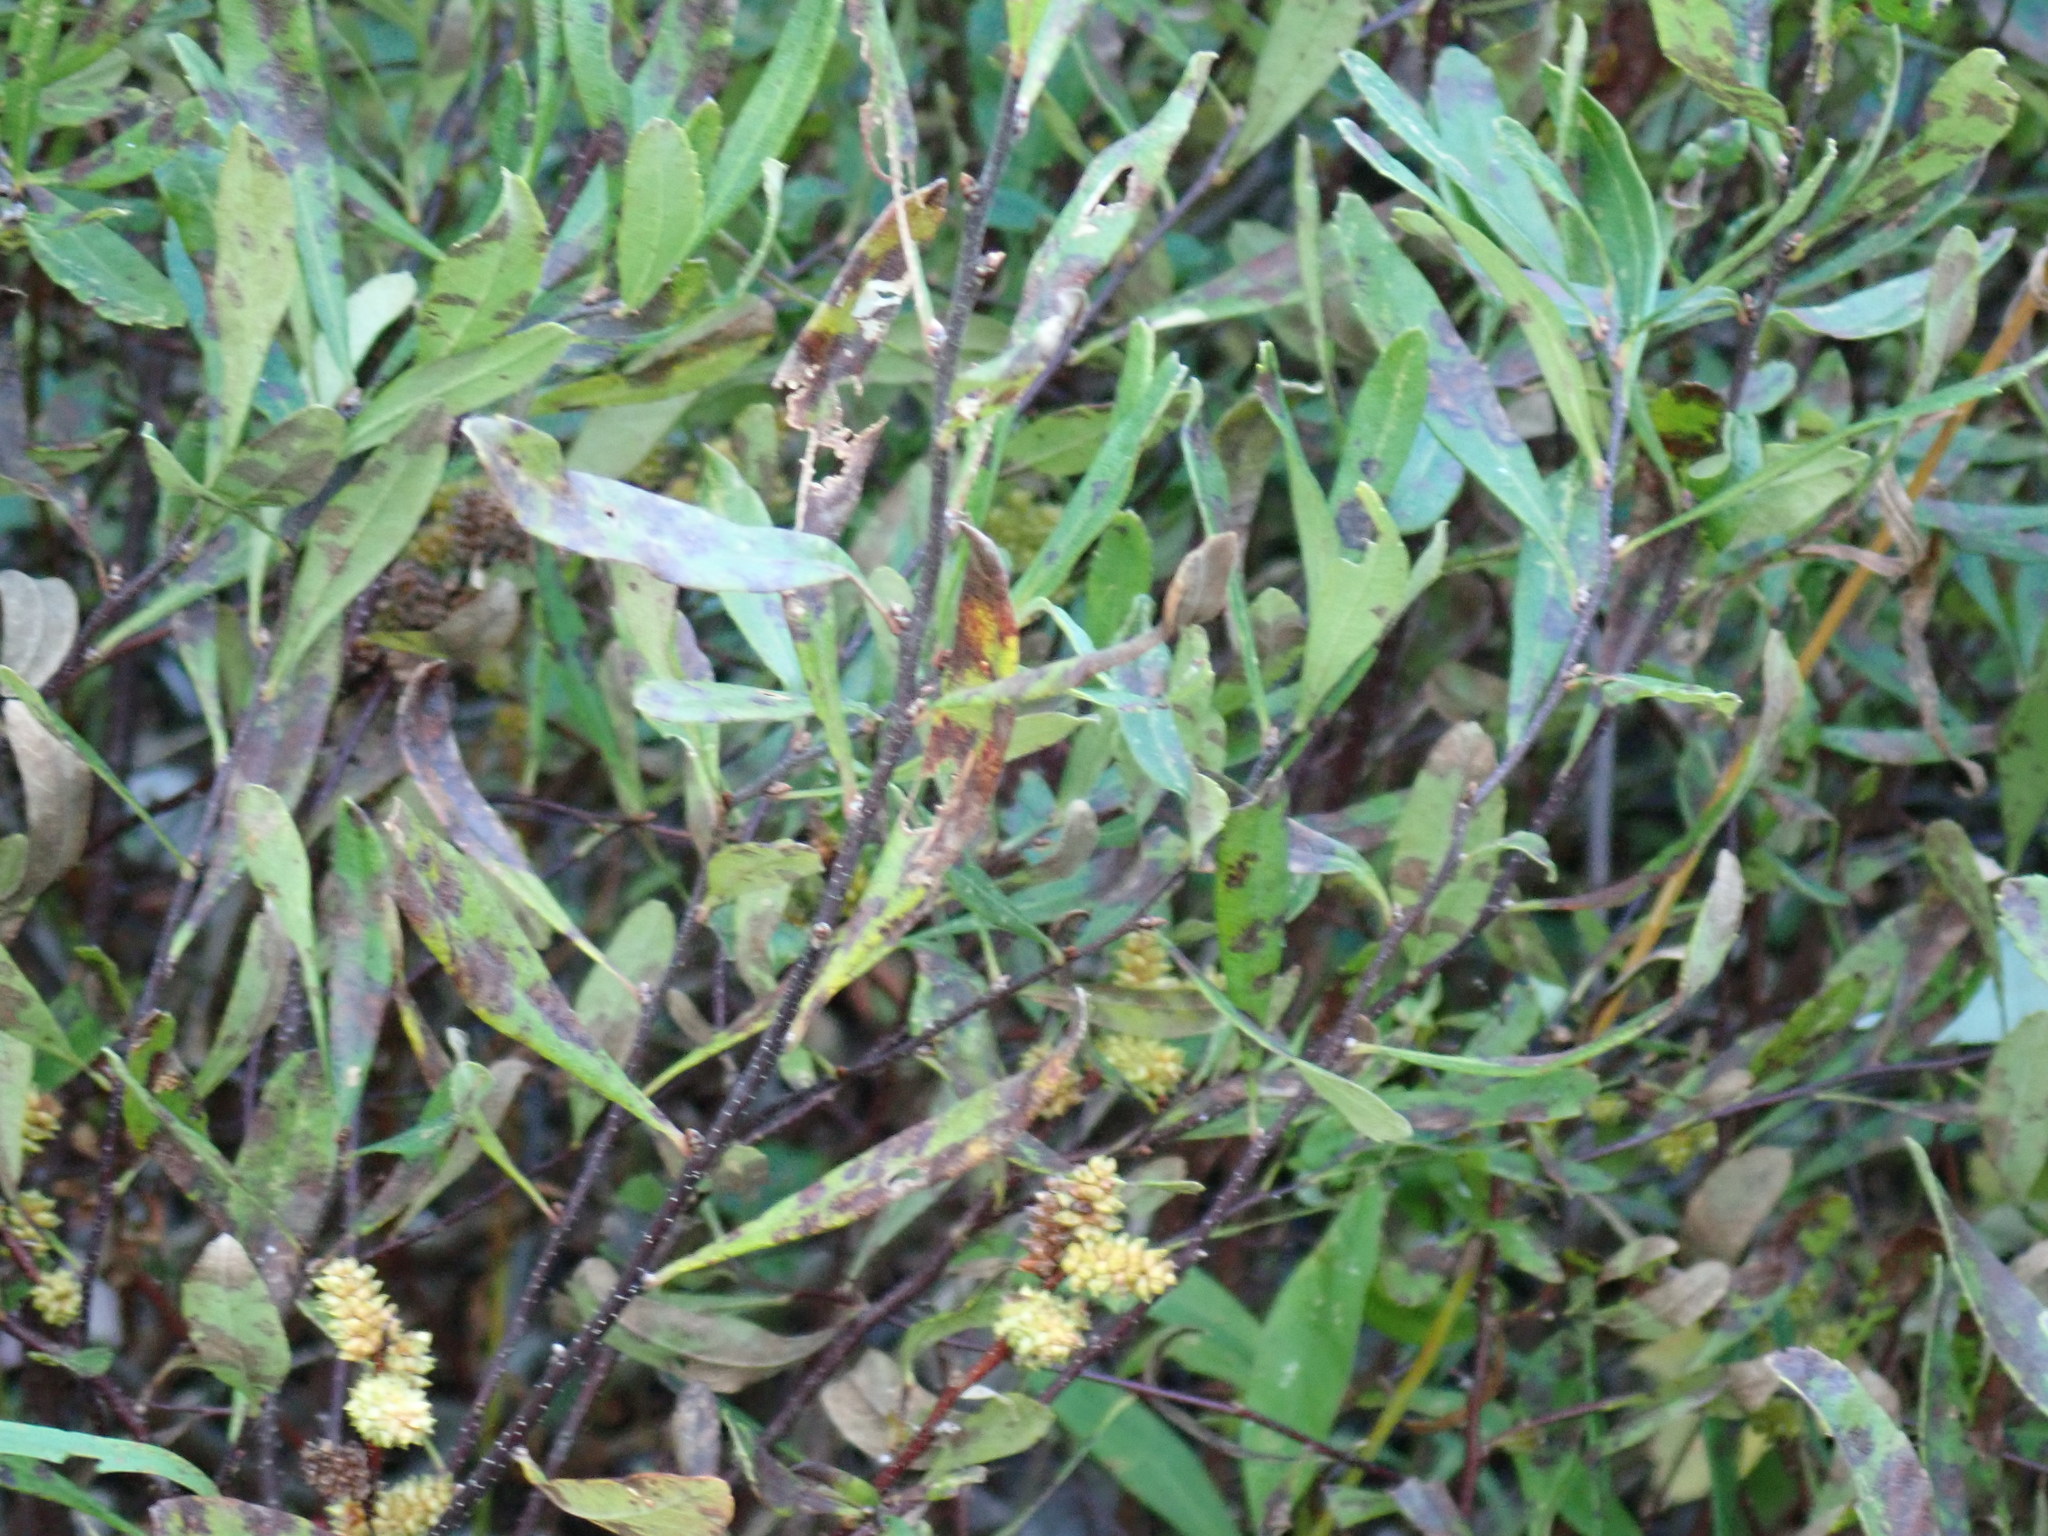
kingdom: Plantae
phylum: Tracheophyta
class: Magnoliopsida
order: Fagales
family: Myricaceae
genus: Myrica
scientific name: Myrica gale
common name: Sweet gale
